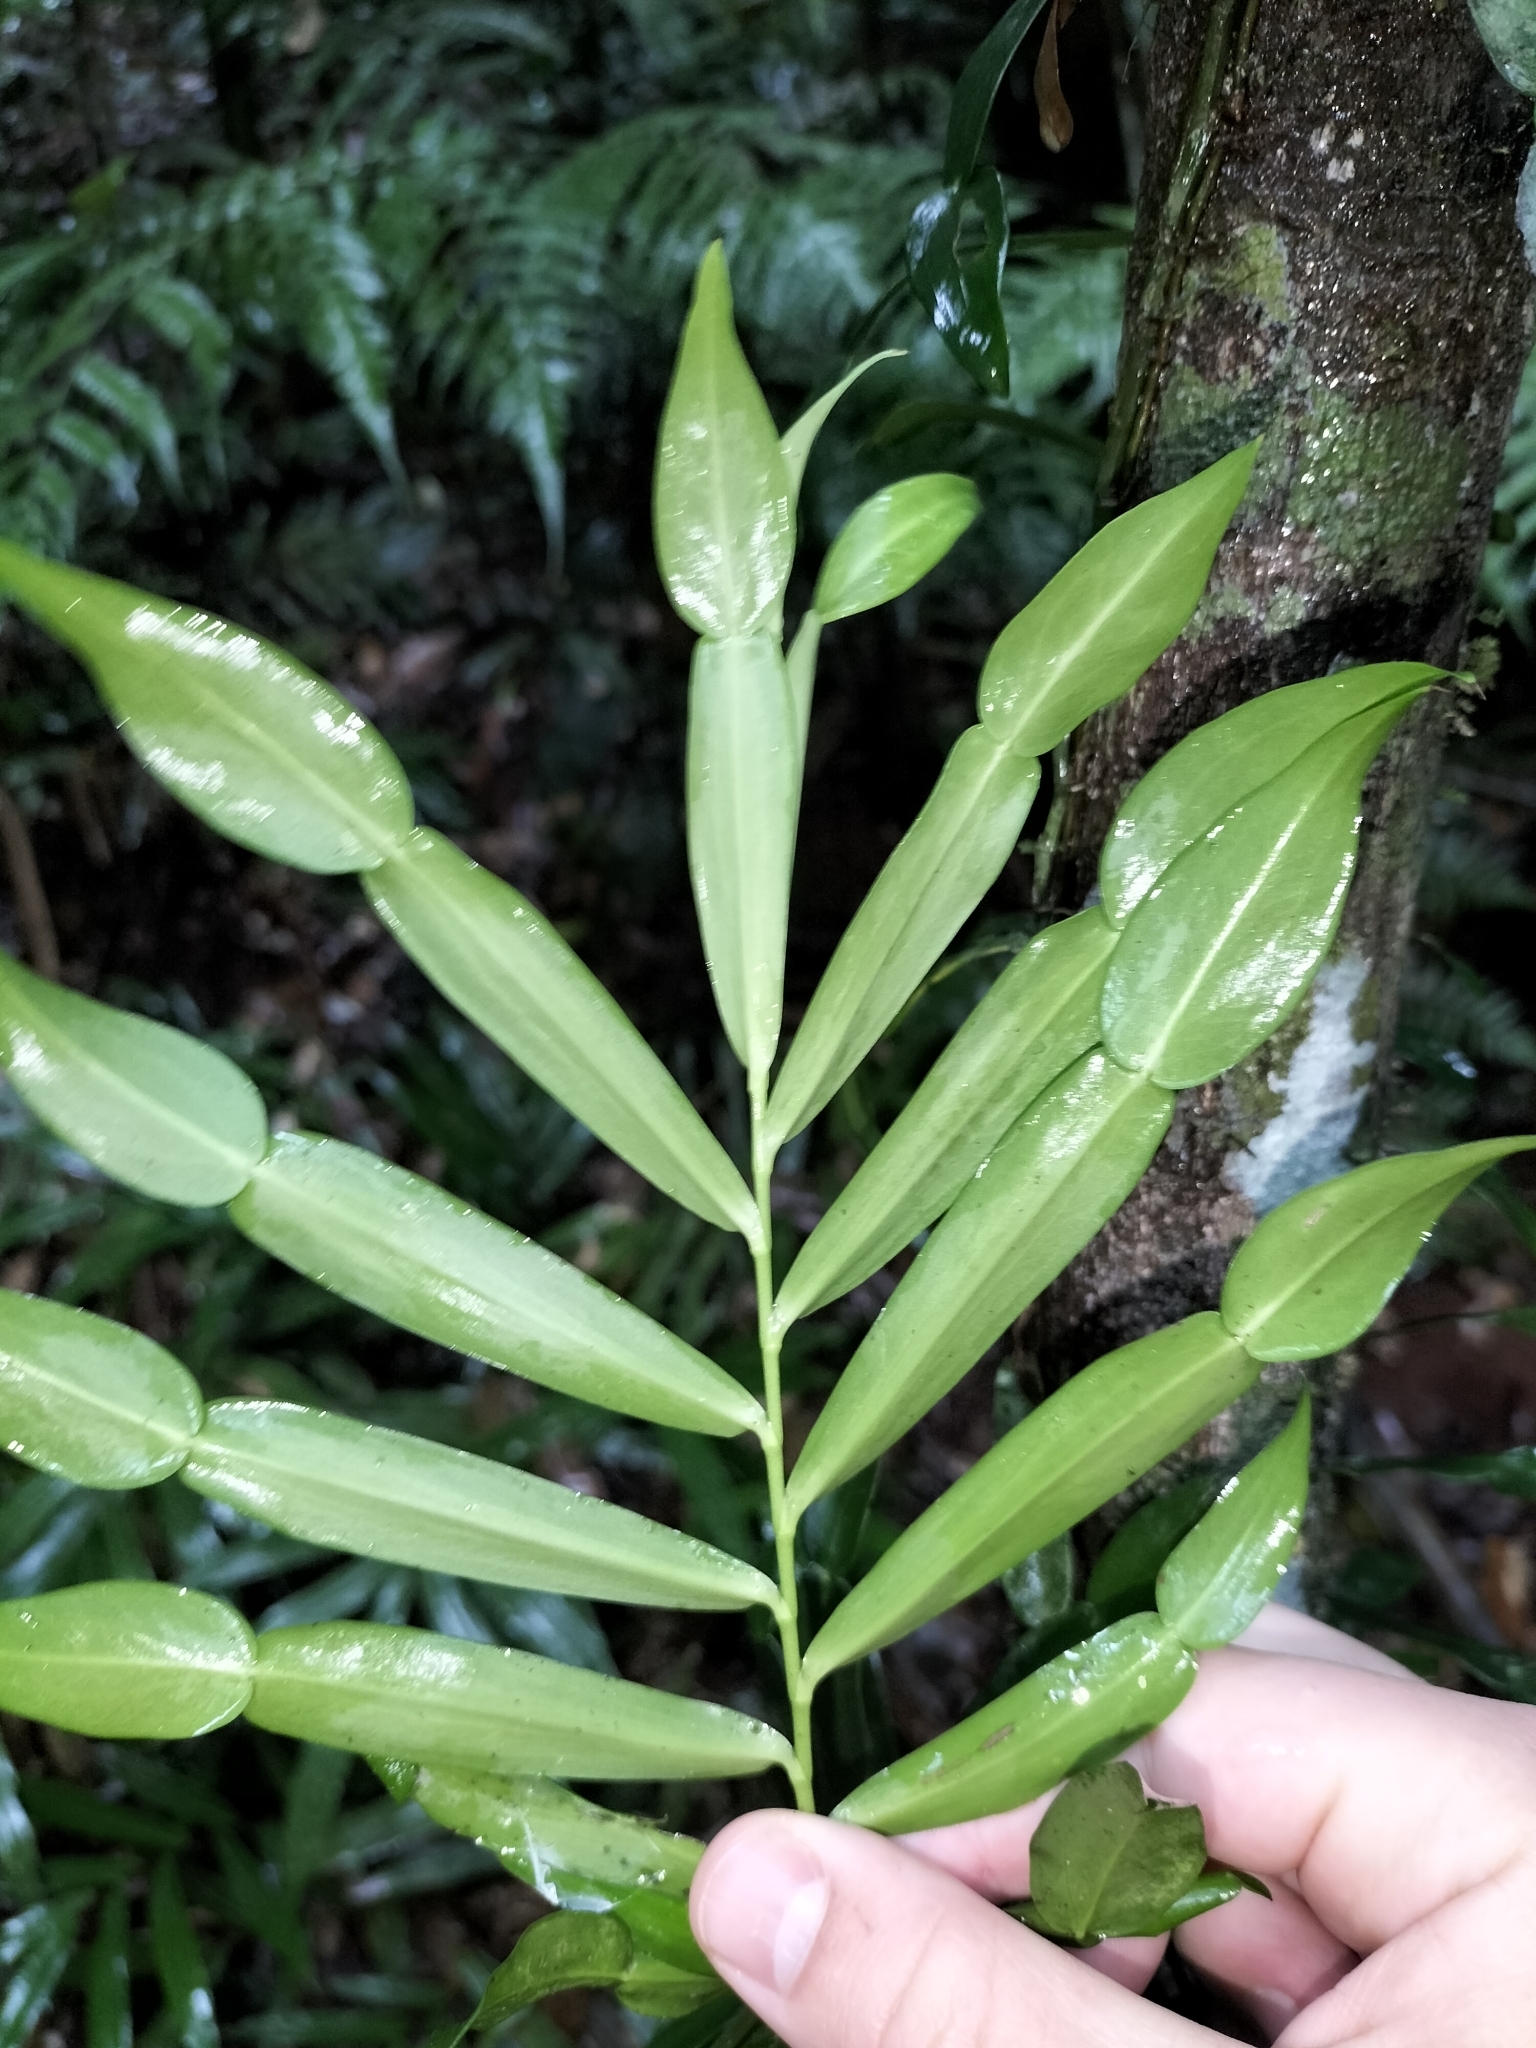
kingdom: Plantae
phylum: Tracheophyta
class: Liliopsida
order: Alismatales
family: Araceae
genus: Pothos
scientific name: Pothos longipes
